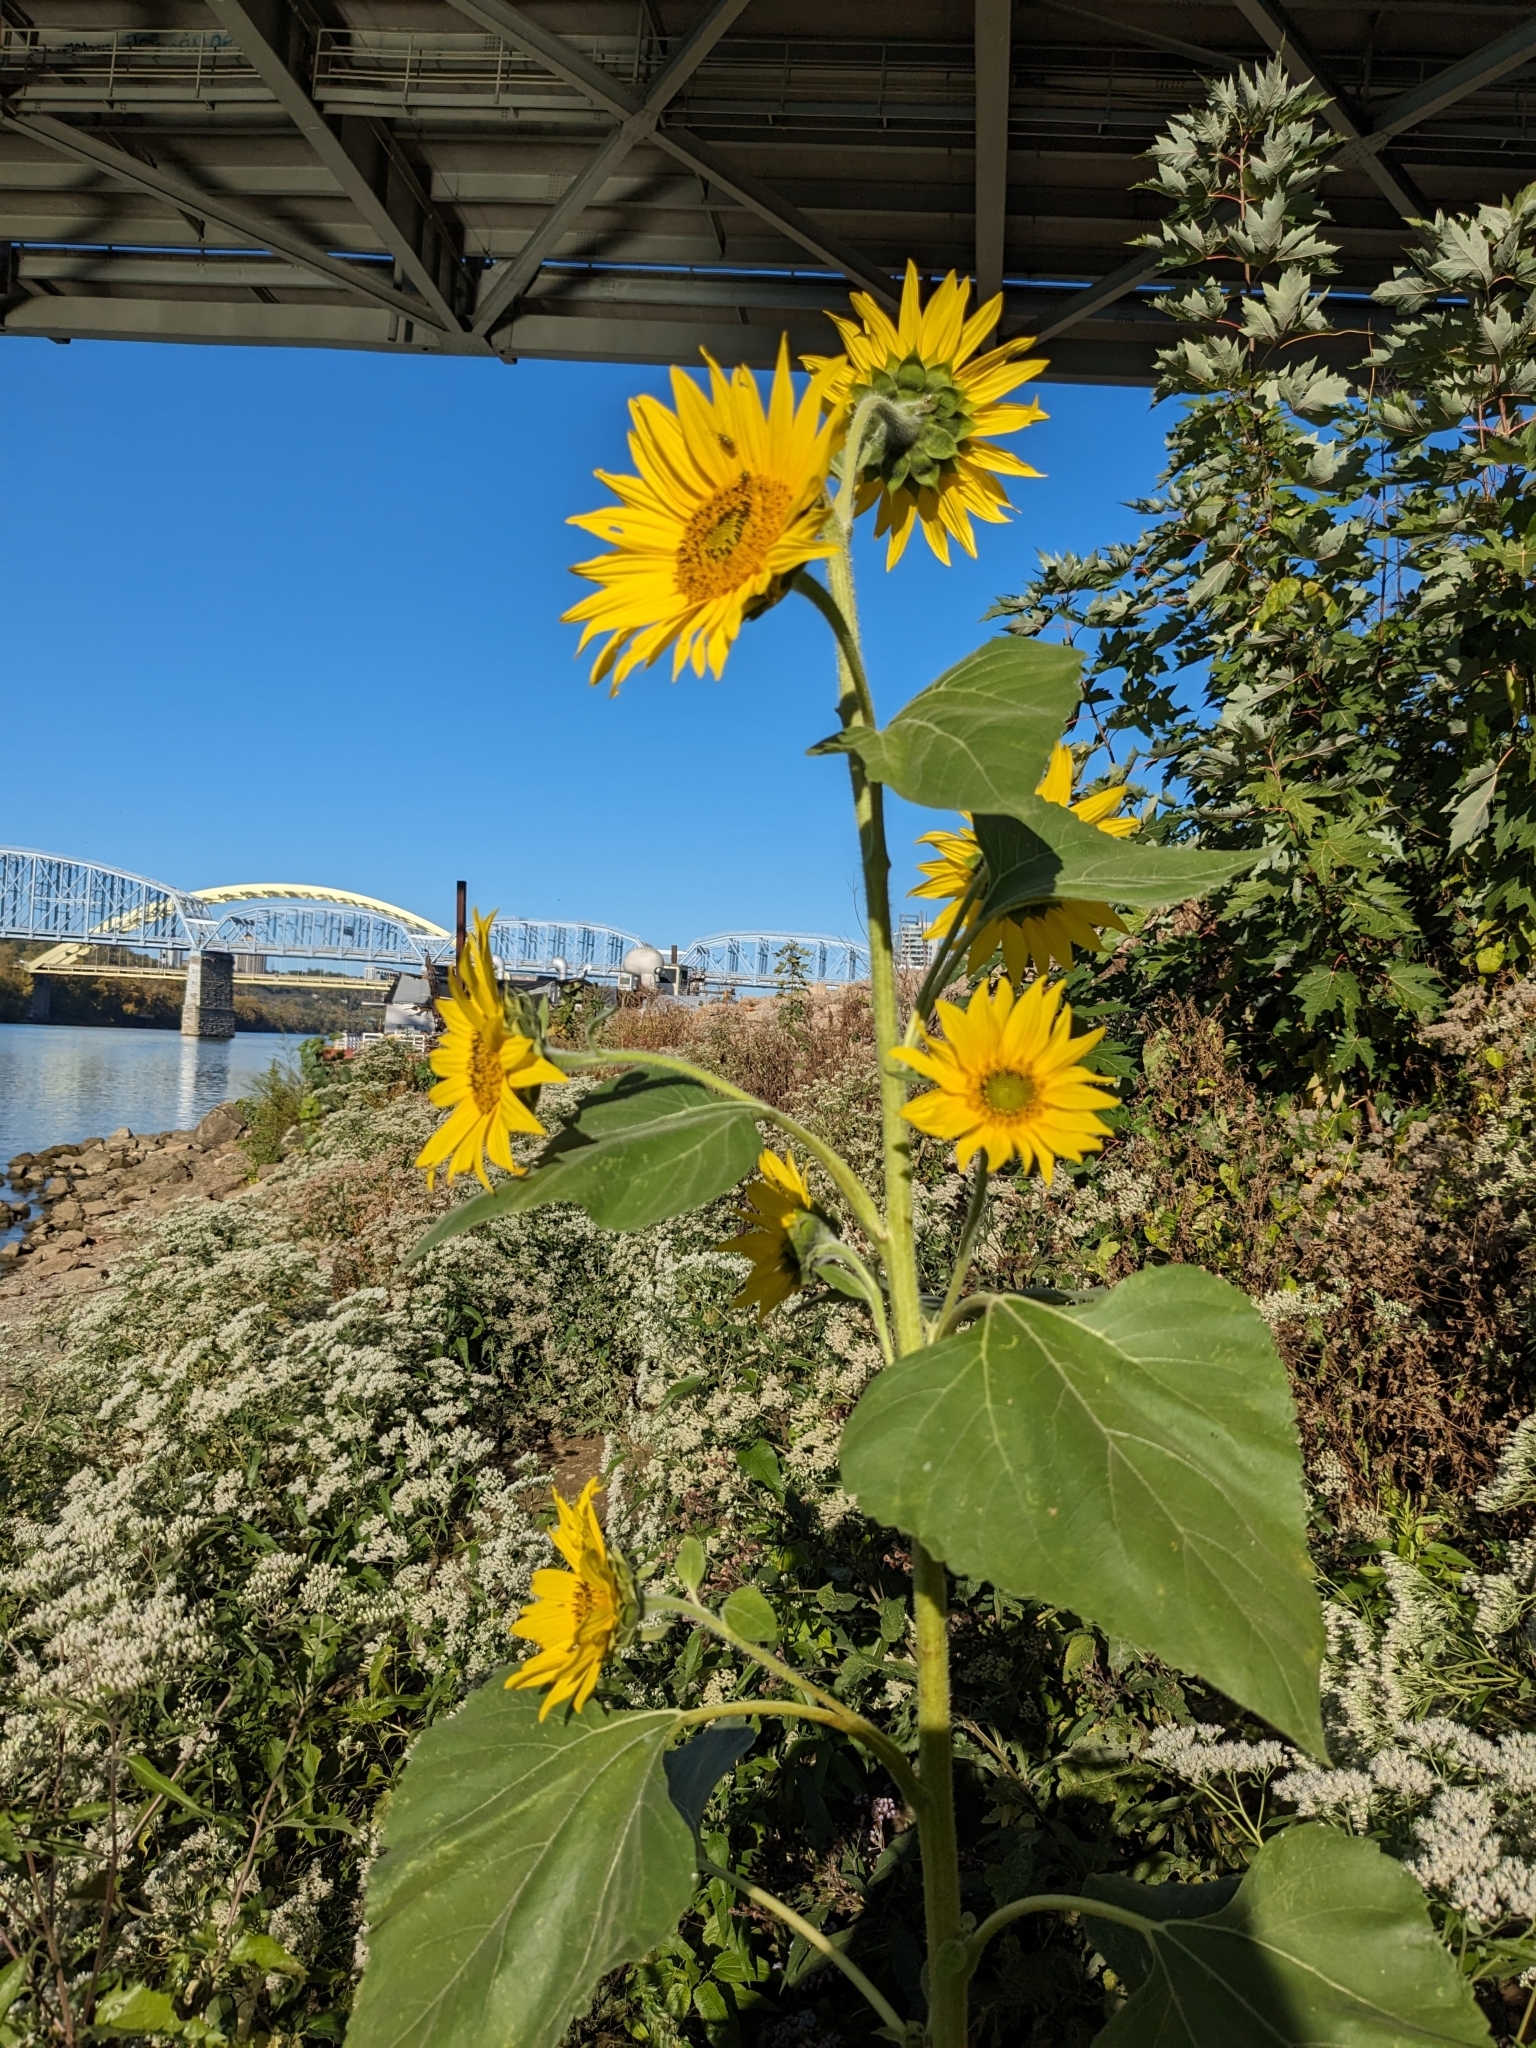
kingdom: Plantae
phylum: Tracheophyta
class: Magnoliopsida
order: Asterales
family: Asteraceae
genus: Helianthus
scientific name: Helianthus annuus
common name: Sunflower
